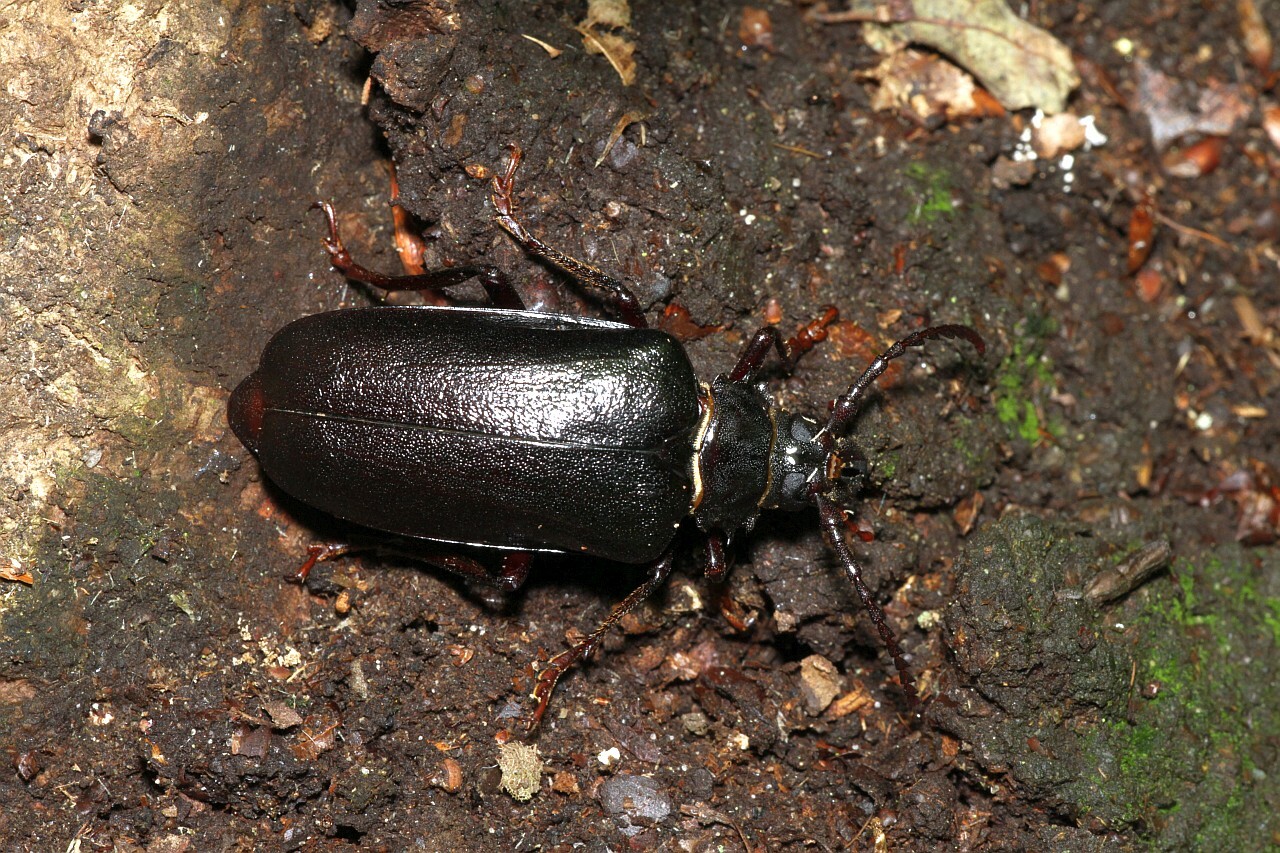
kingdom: Animalia
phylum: Arthropoda
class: Insecta
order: Coleoptera
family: Cerambycidae
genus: Prionus
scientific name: Prionus coriarius
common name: Tanner beetle
